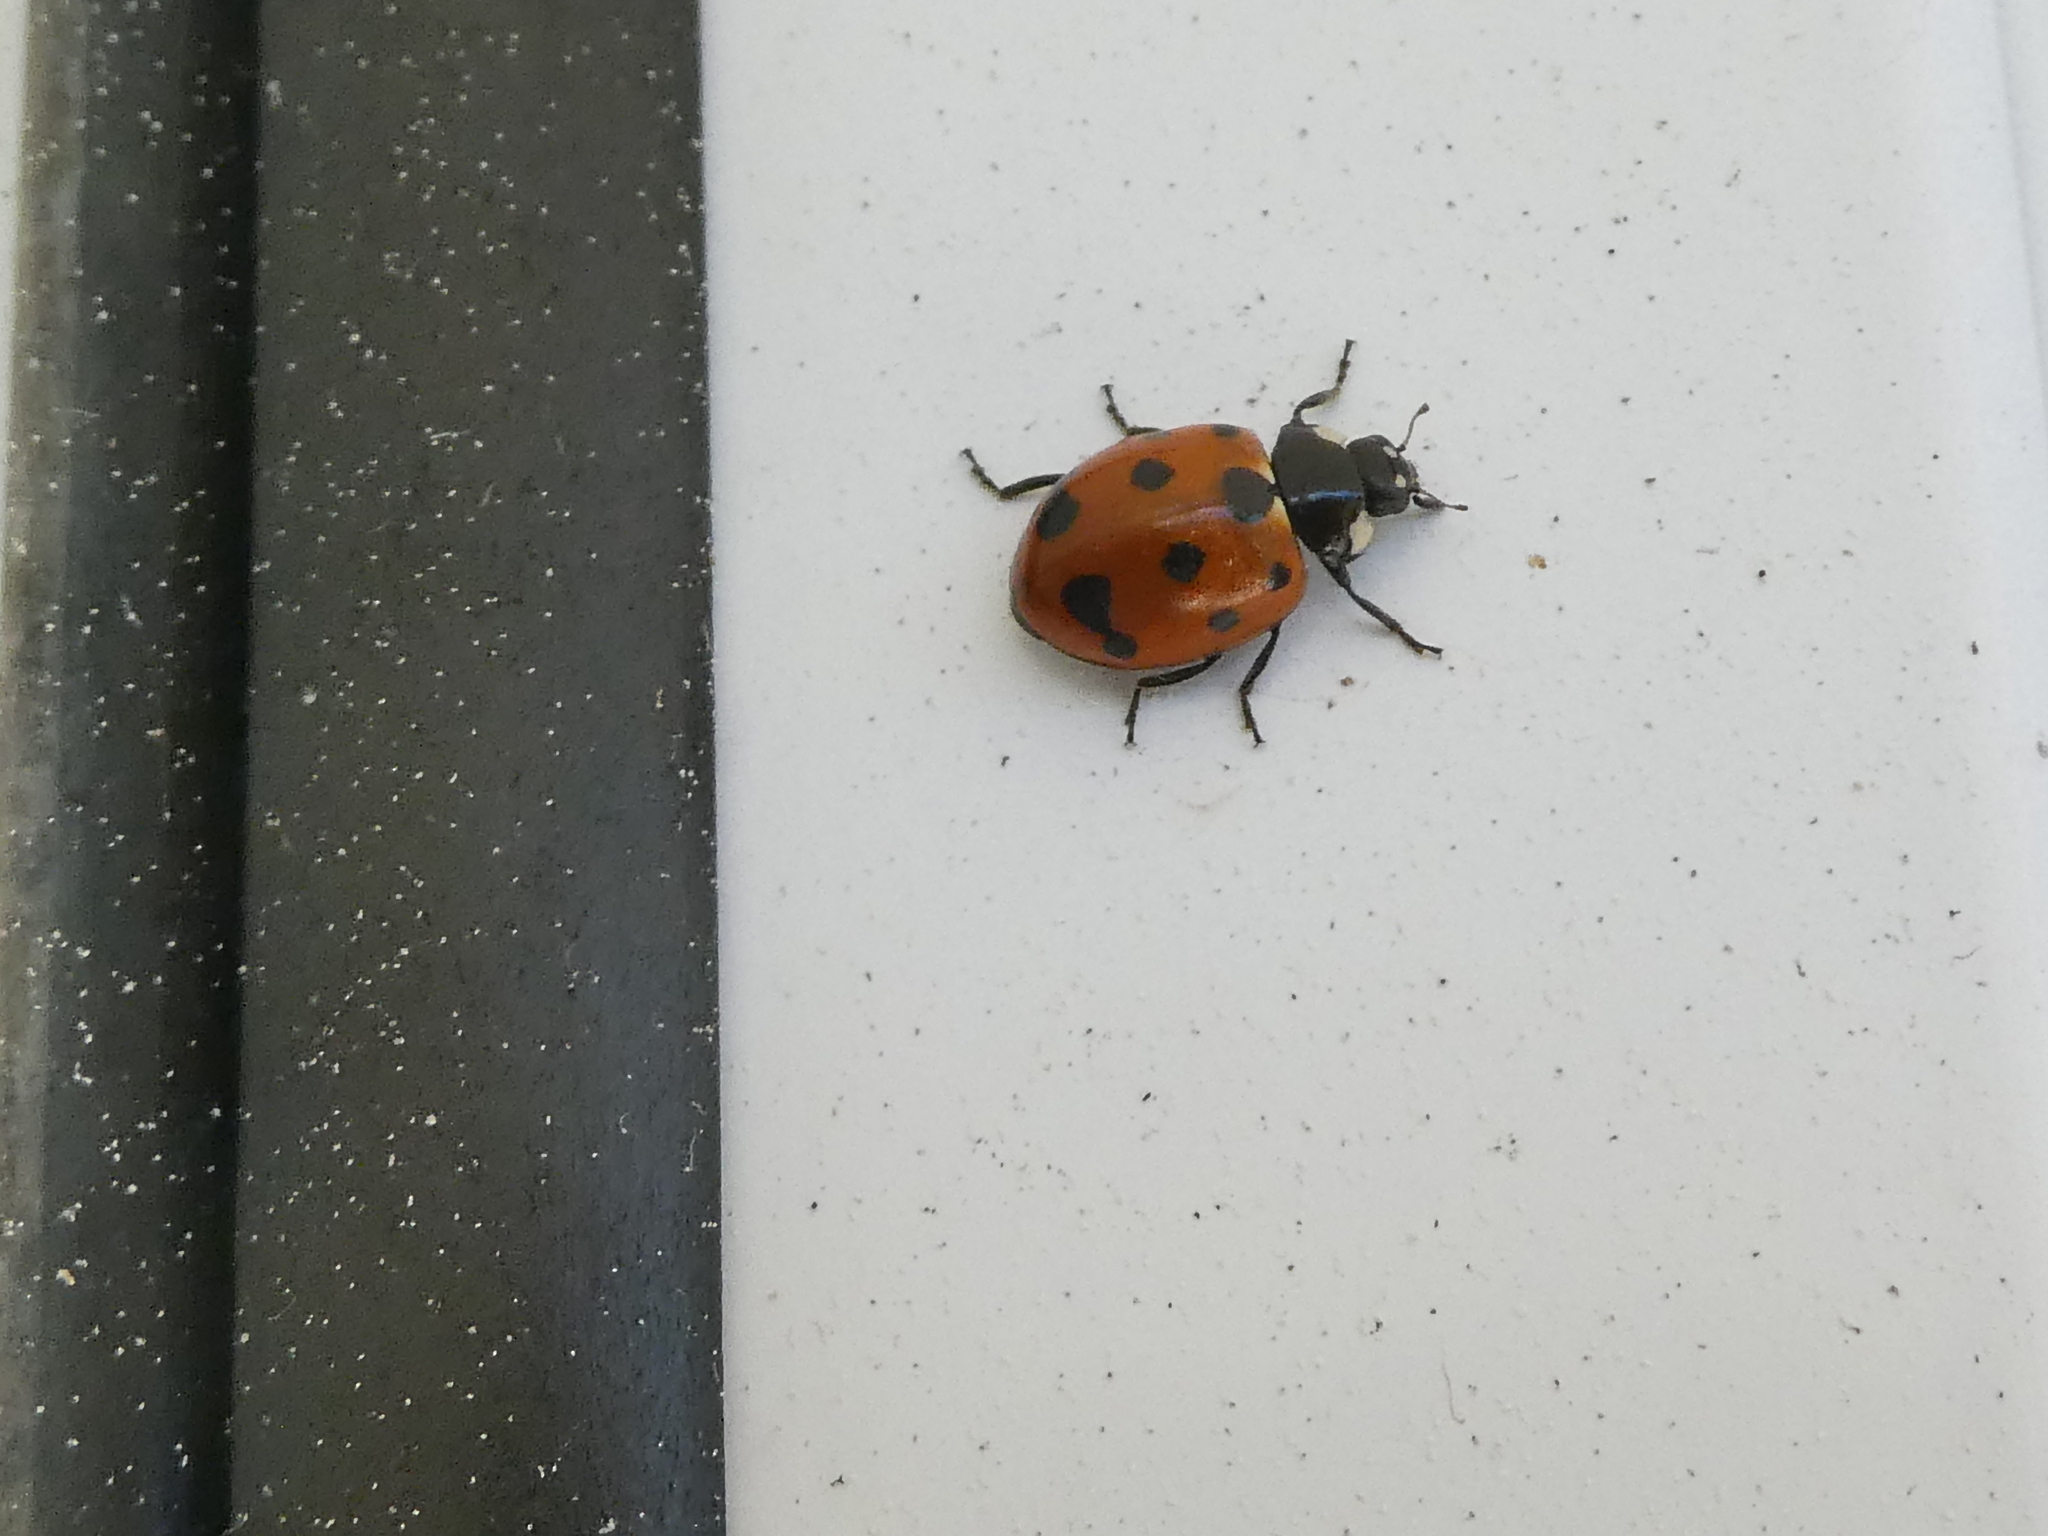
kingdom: Animalia
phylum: Arthropoda
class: Insecta
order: Coleoptera
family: Coccinellidae
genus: Coccinella
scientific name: Coccinella undecimpunctata
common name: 11-spot ladybird
